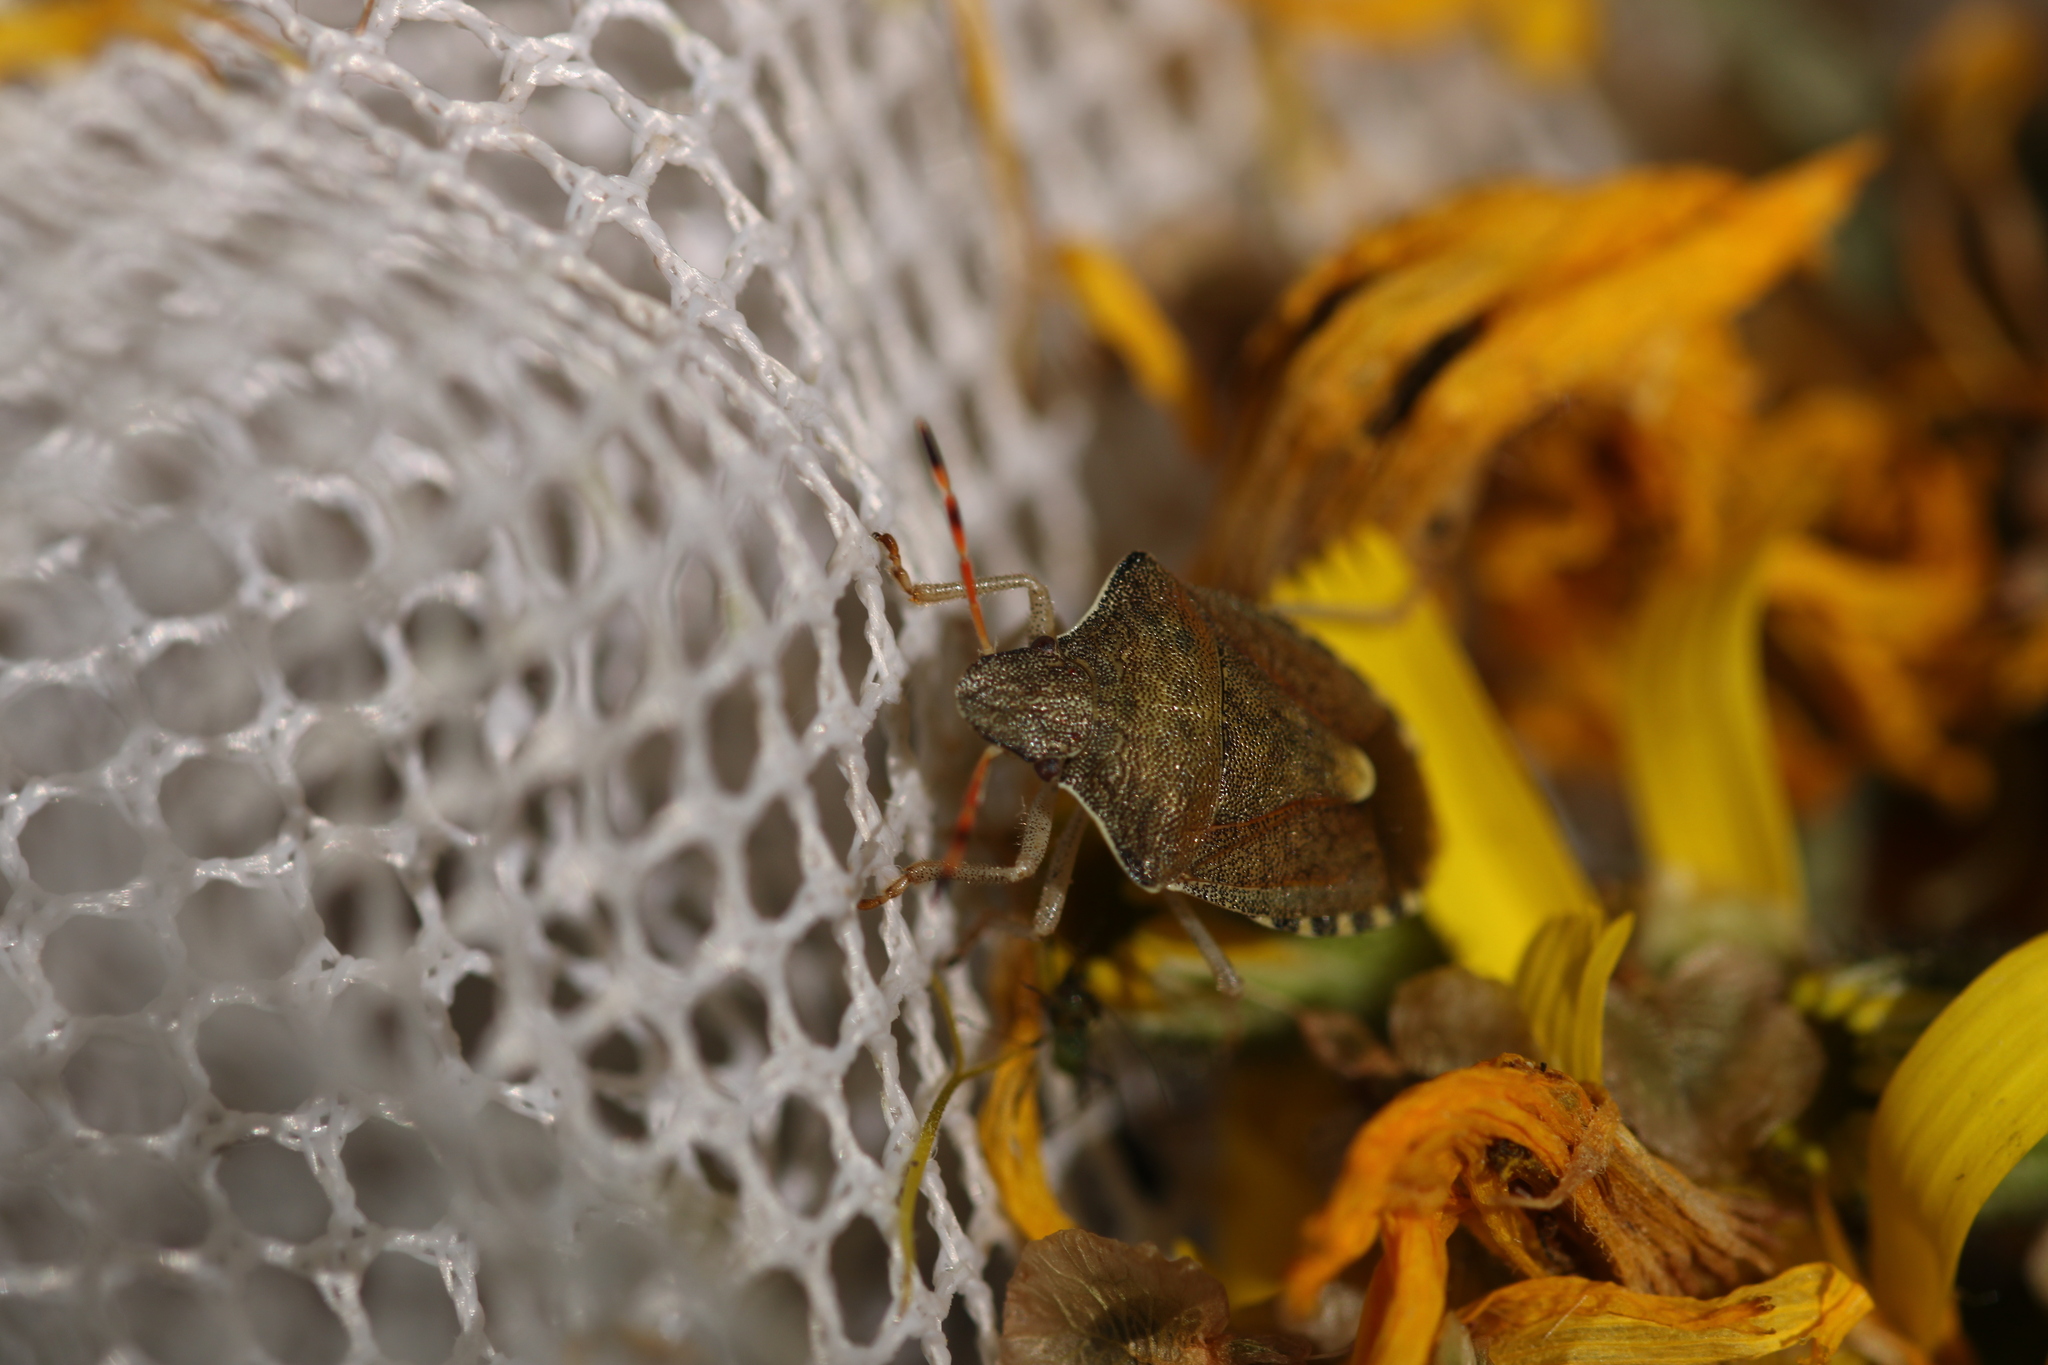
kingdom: Animalia
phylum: Arthropoda
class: Insecta
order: Hemiptera
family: Pentatomidae
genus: Holcostethus
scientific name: Holcostethus strictus
